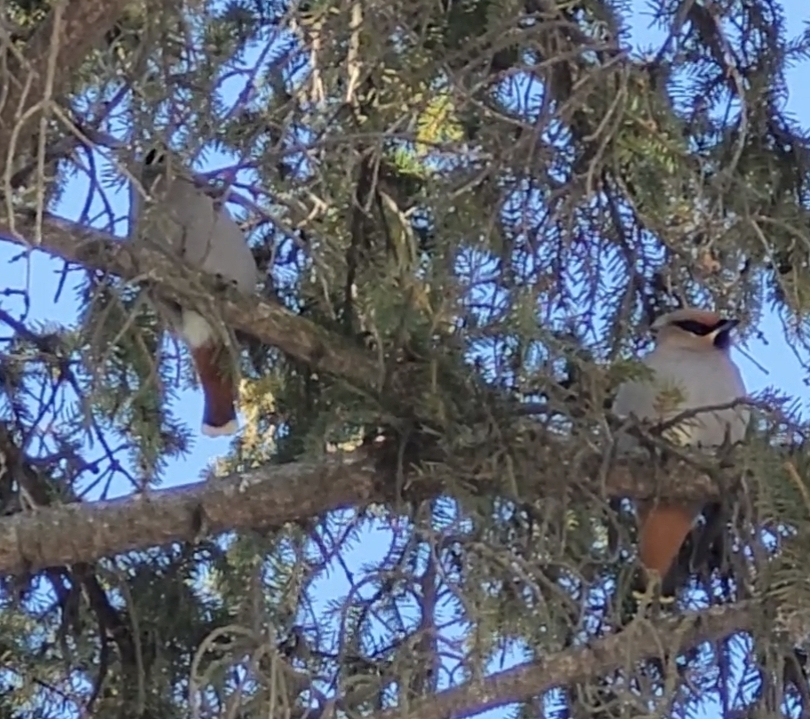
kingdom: Animalia
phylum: Chordata
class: Aves
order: Passeriformes
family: Bombycillidae
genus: Bombycilla
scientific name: Bombycilla garrulus
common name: Bohemian waxwing
